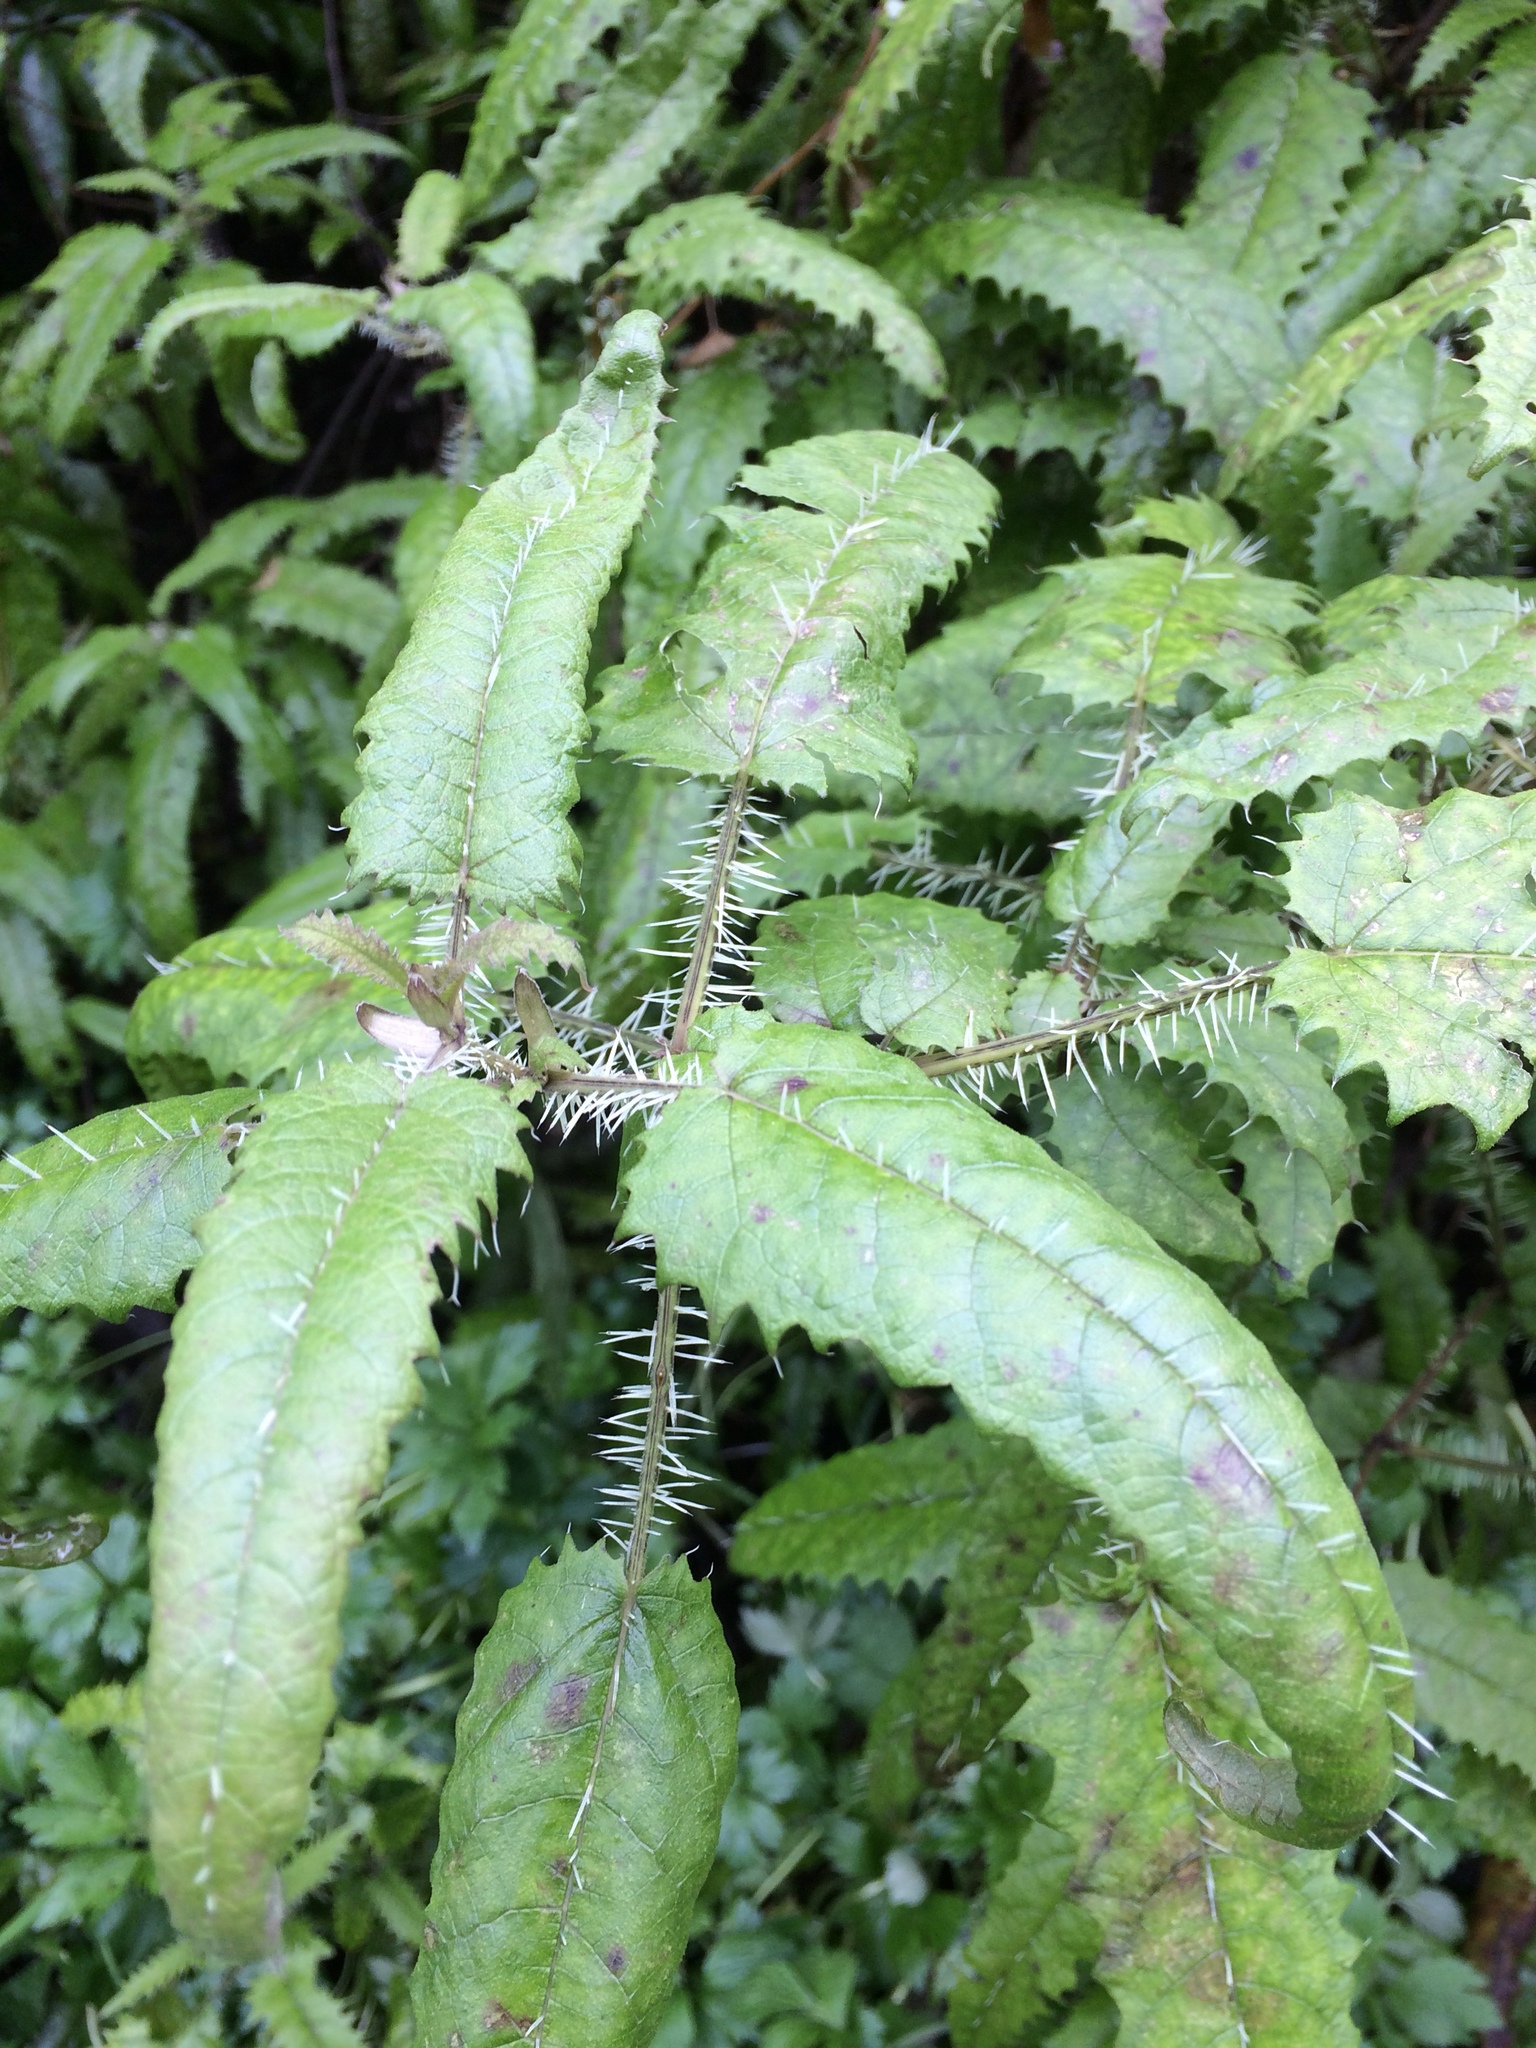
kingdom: Plantae
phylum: Tracheophyta
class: Magnoliopsida
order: Rosales
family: Urticaceae
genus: Urtica
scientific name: Urtica ferox
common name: Tree nettle
